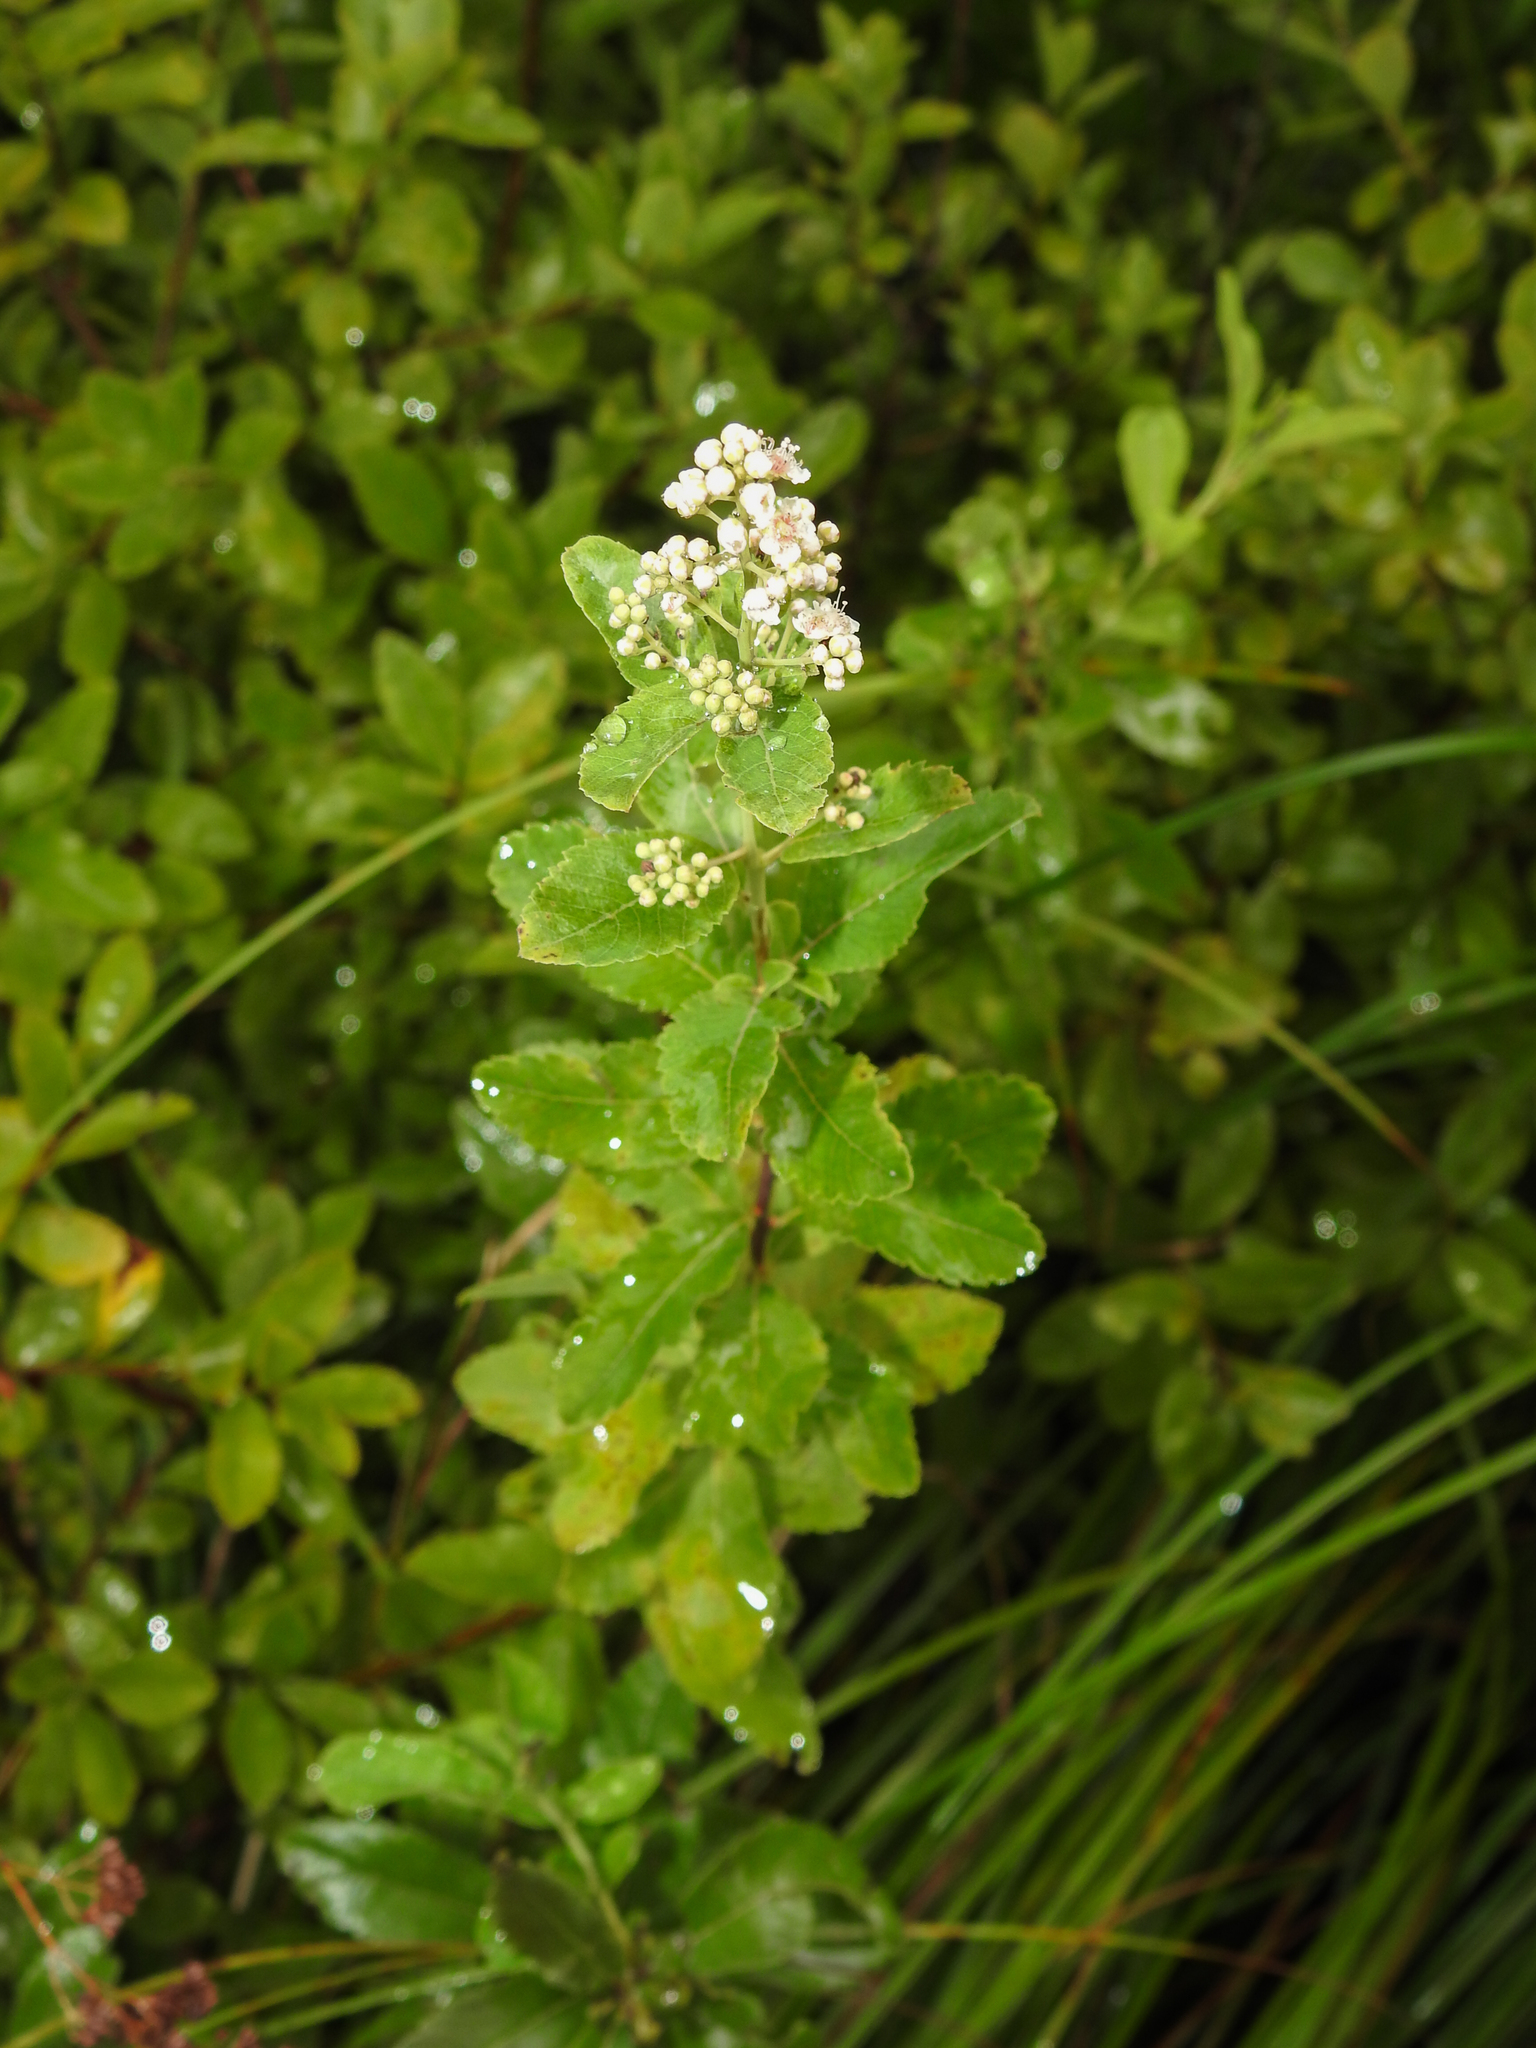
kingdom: Plantae
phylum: Tracheophyta
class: Magnoliopsida
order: Rosales
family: Rosaceae
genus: Spiraea
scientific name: Spiraea alba
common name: Pale bridewort
